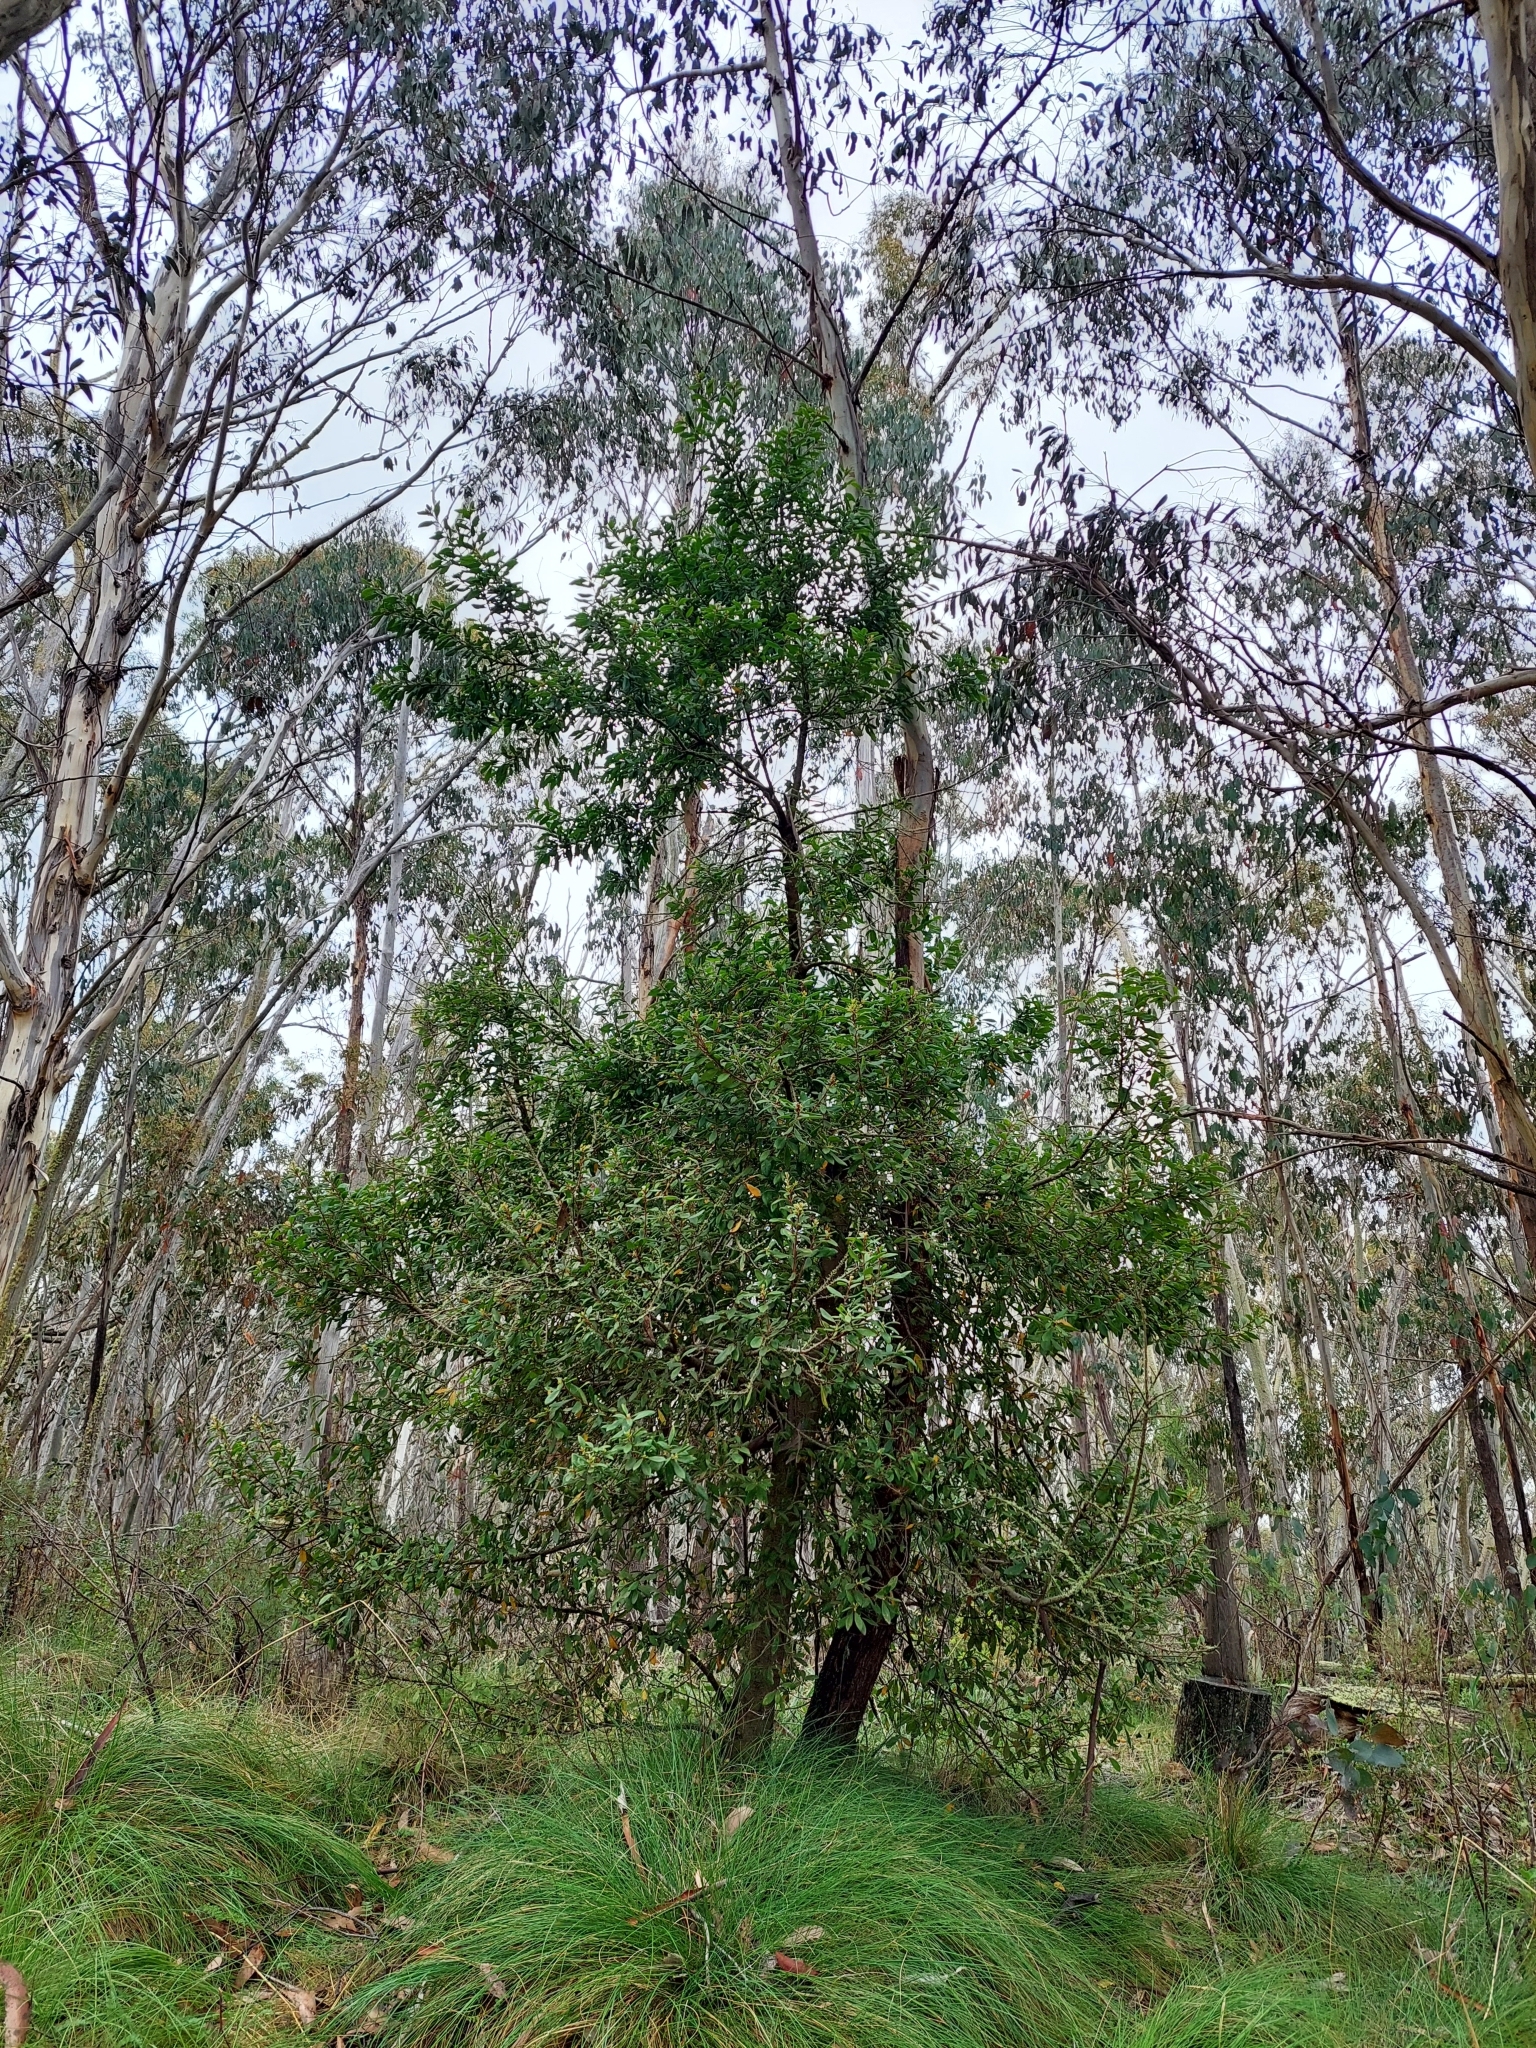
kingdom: Plantae
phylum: Tracheophyta
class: Magnoliopsida
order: Proteales
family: Proteaceae
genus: Persoonia
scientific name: Persoonia subvelutina
